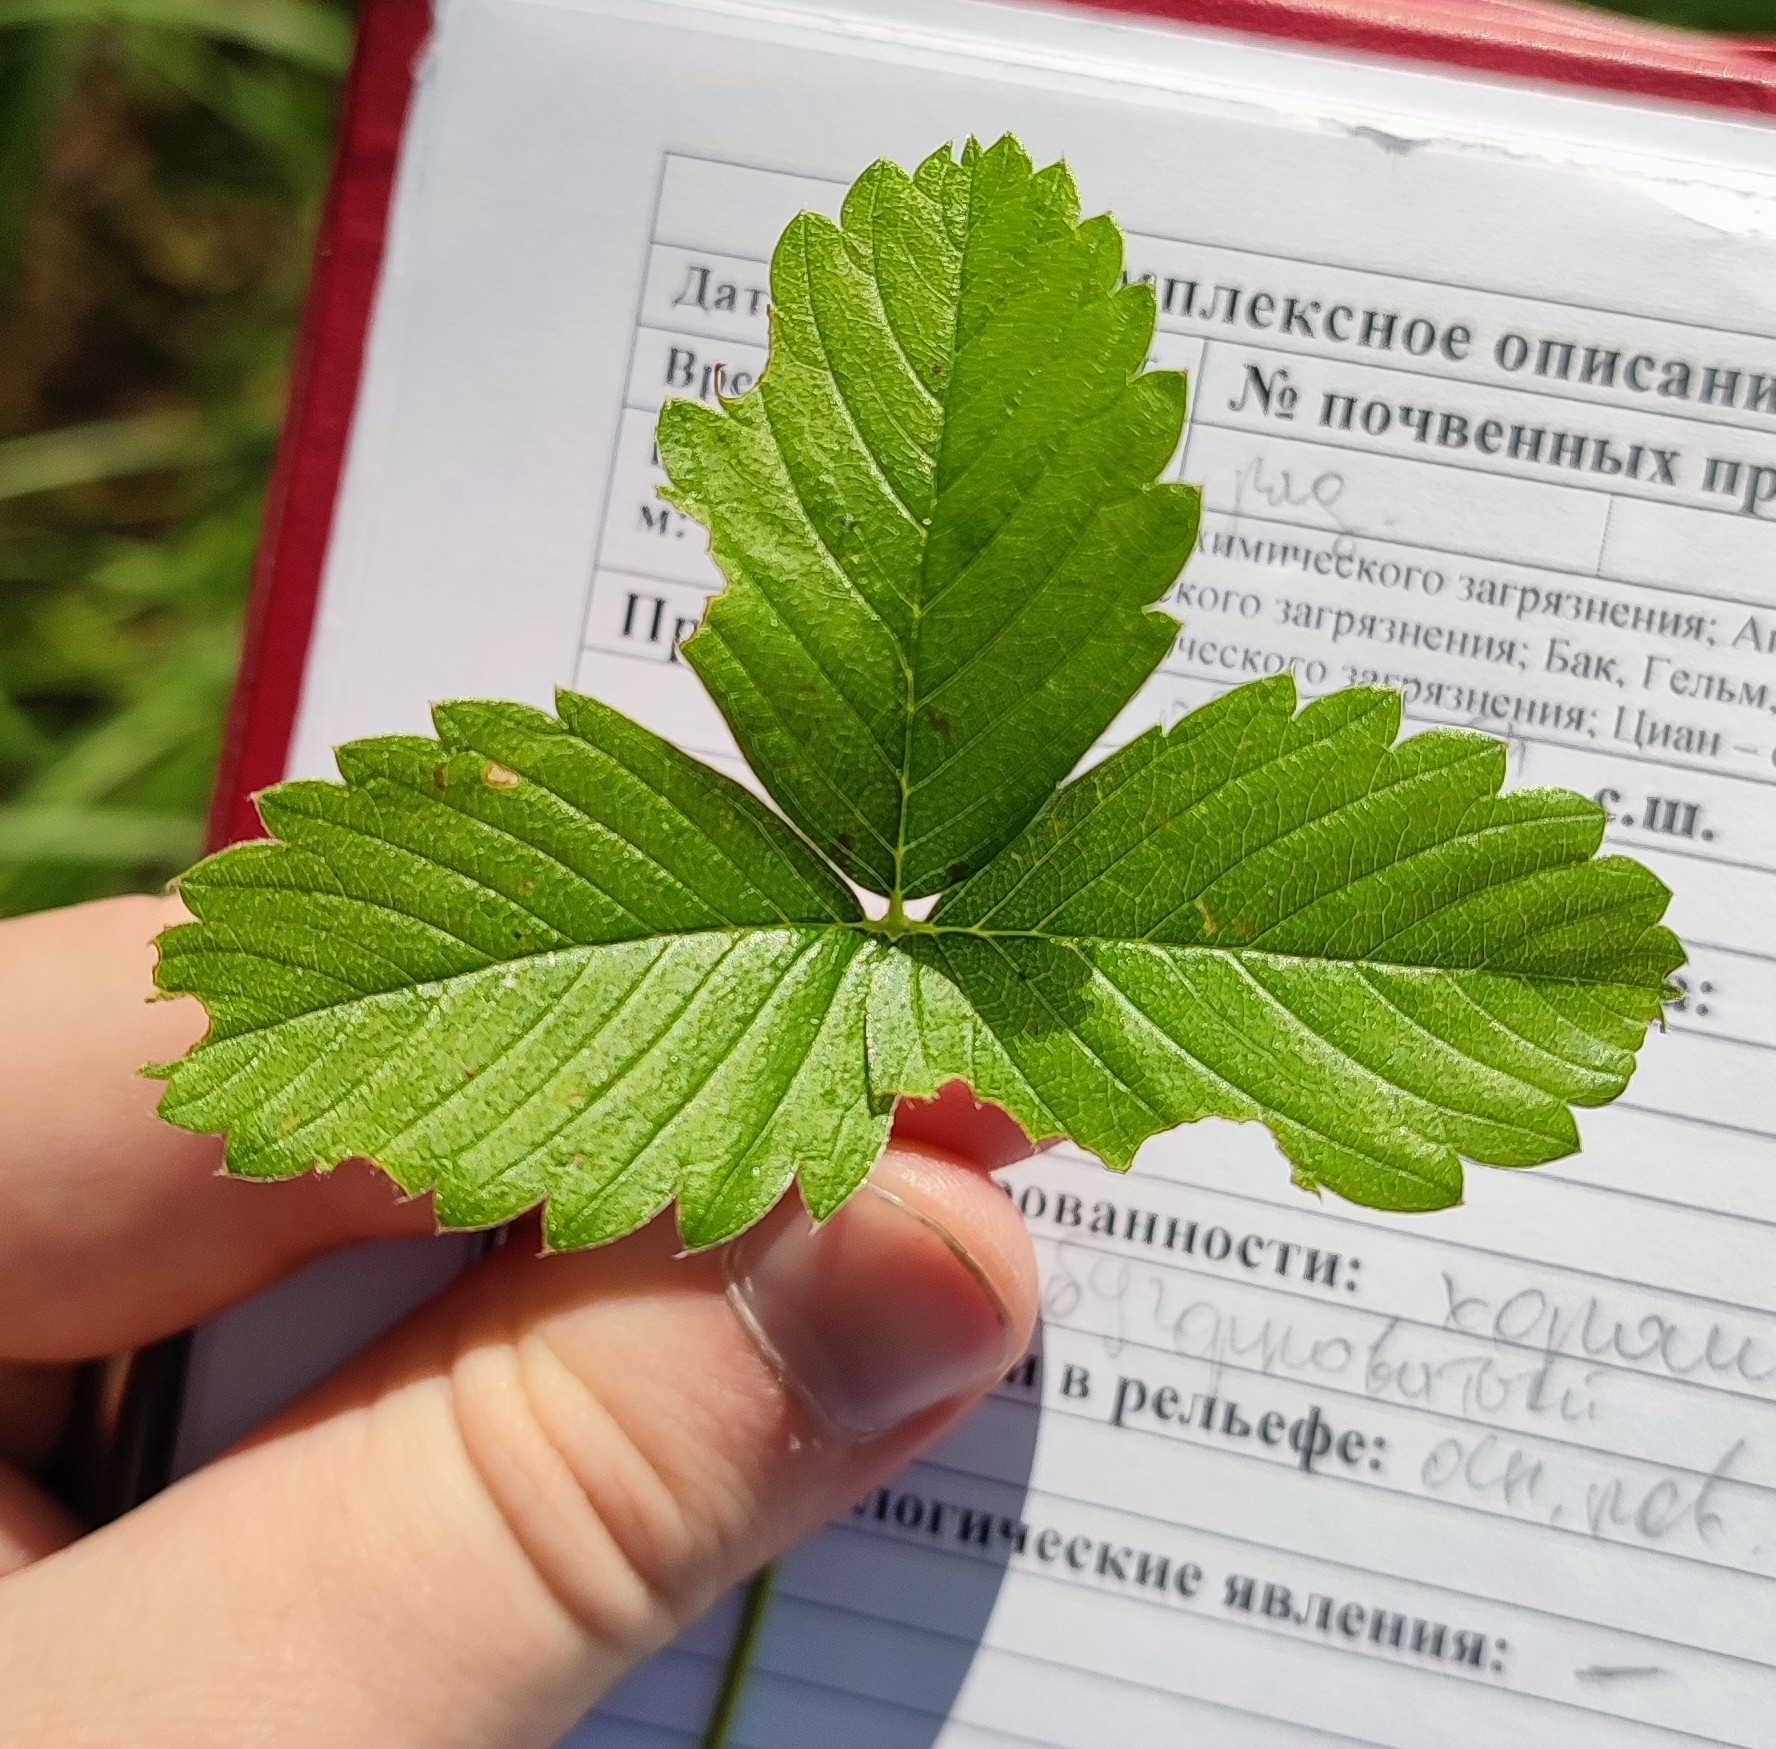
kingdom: Plantae
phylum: Tracheophyta
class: Magnoliopsida
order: Rosales
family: Rosaceae
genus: Fragaria
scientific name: Fragaria viridis
